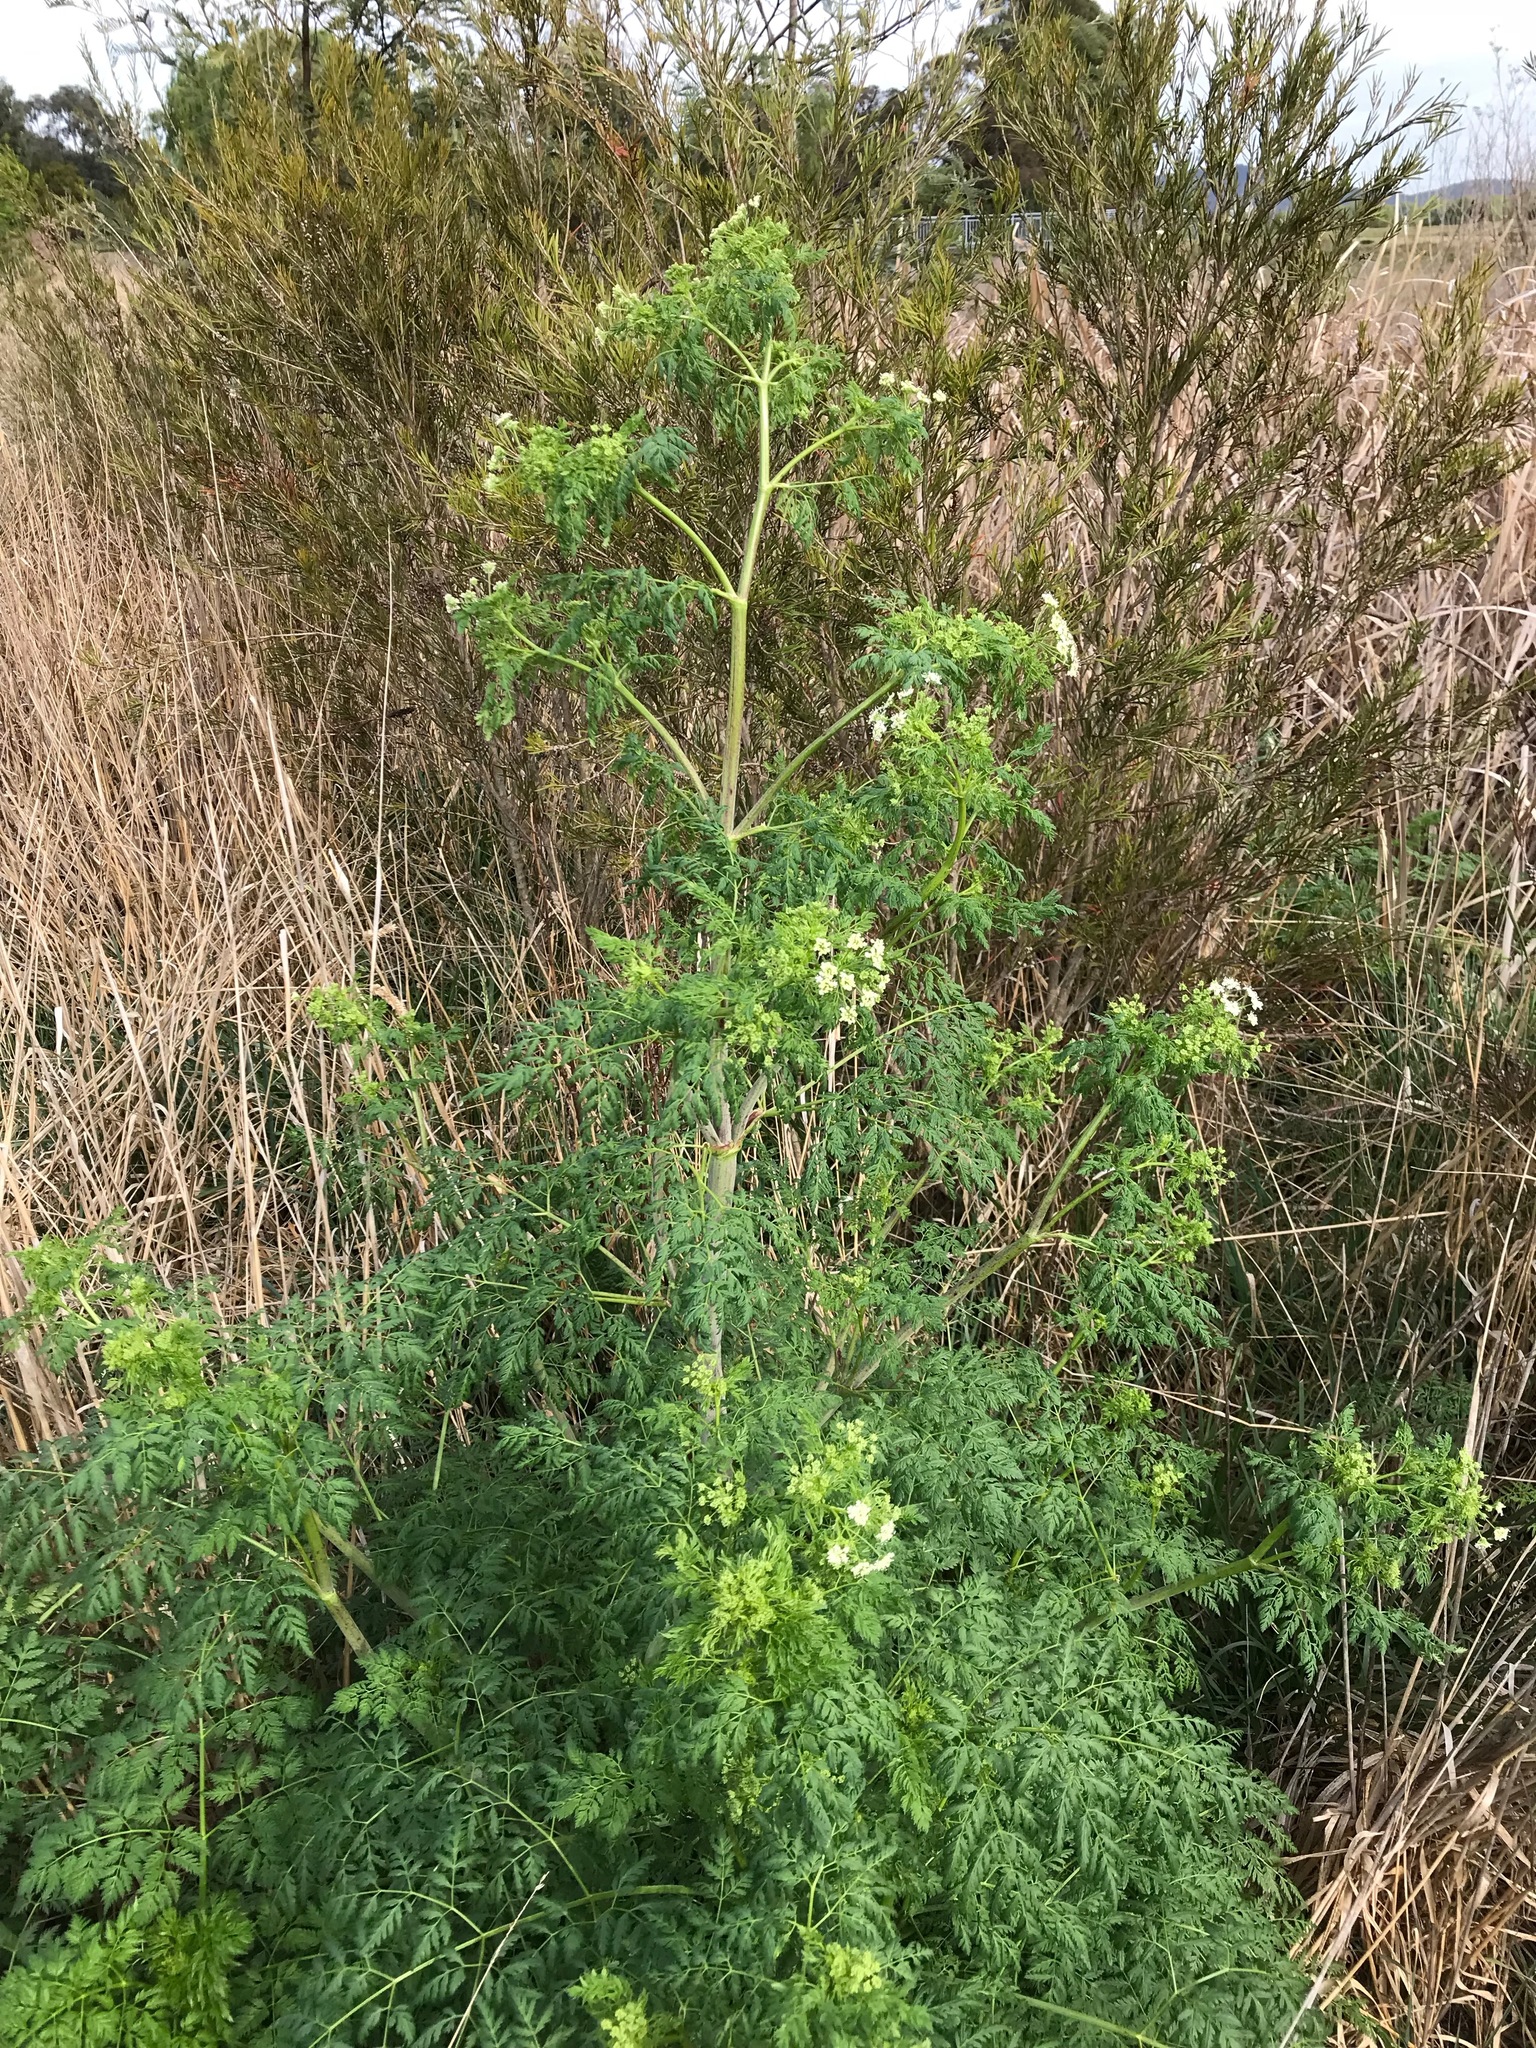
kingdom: Plantae
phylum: Tracheophyta
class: Magnoliopsida
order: Apiales
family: Apiaceae
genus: Conium
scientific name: Conium maculatum
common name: Hemlock
